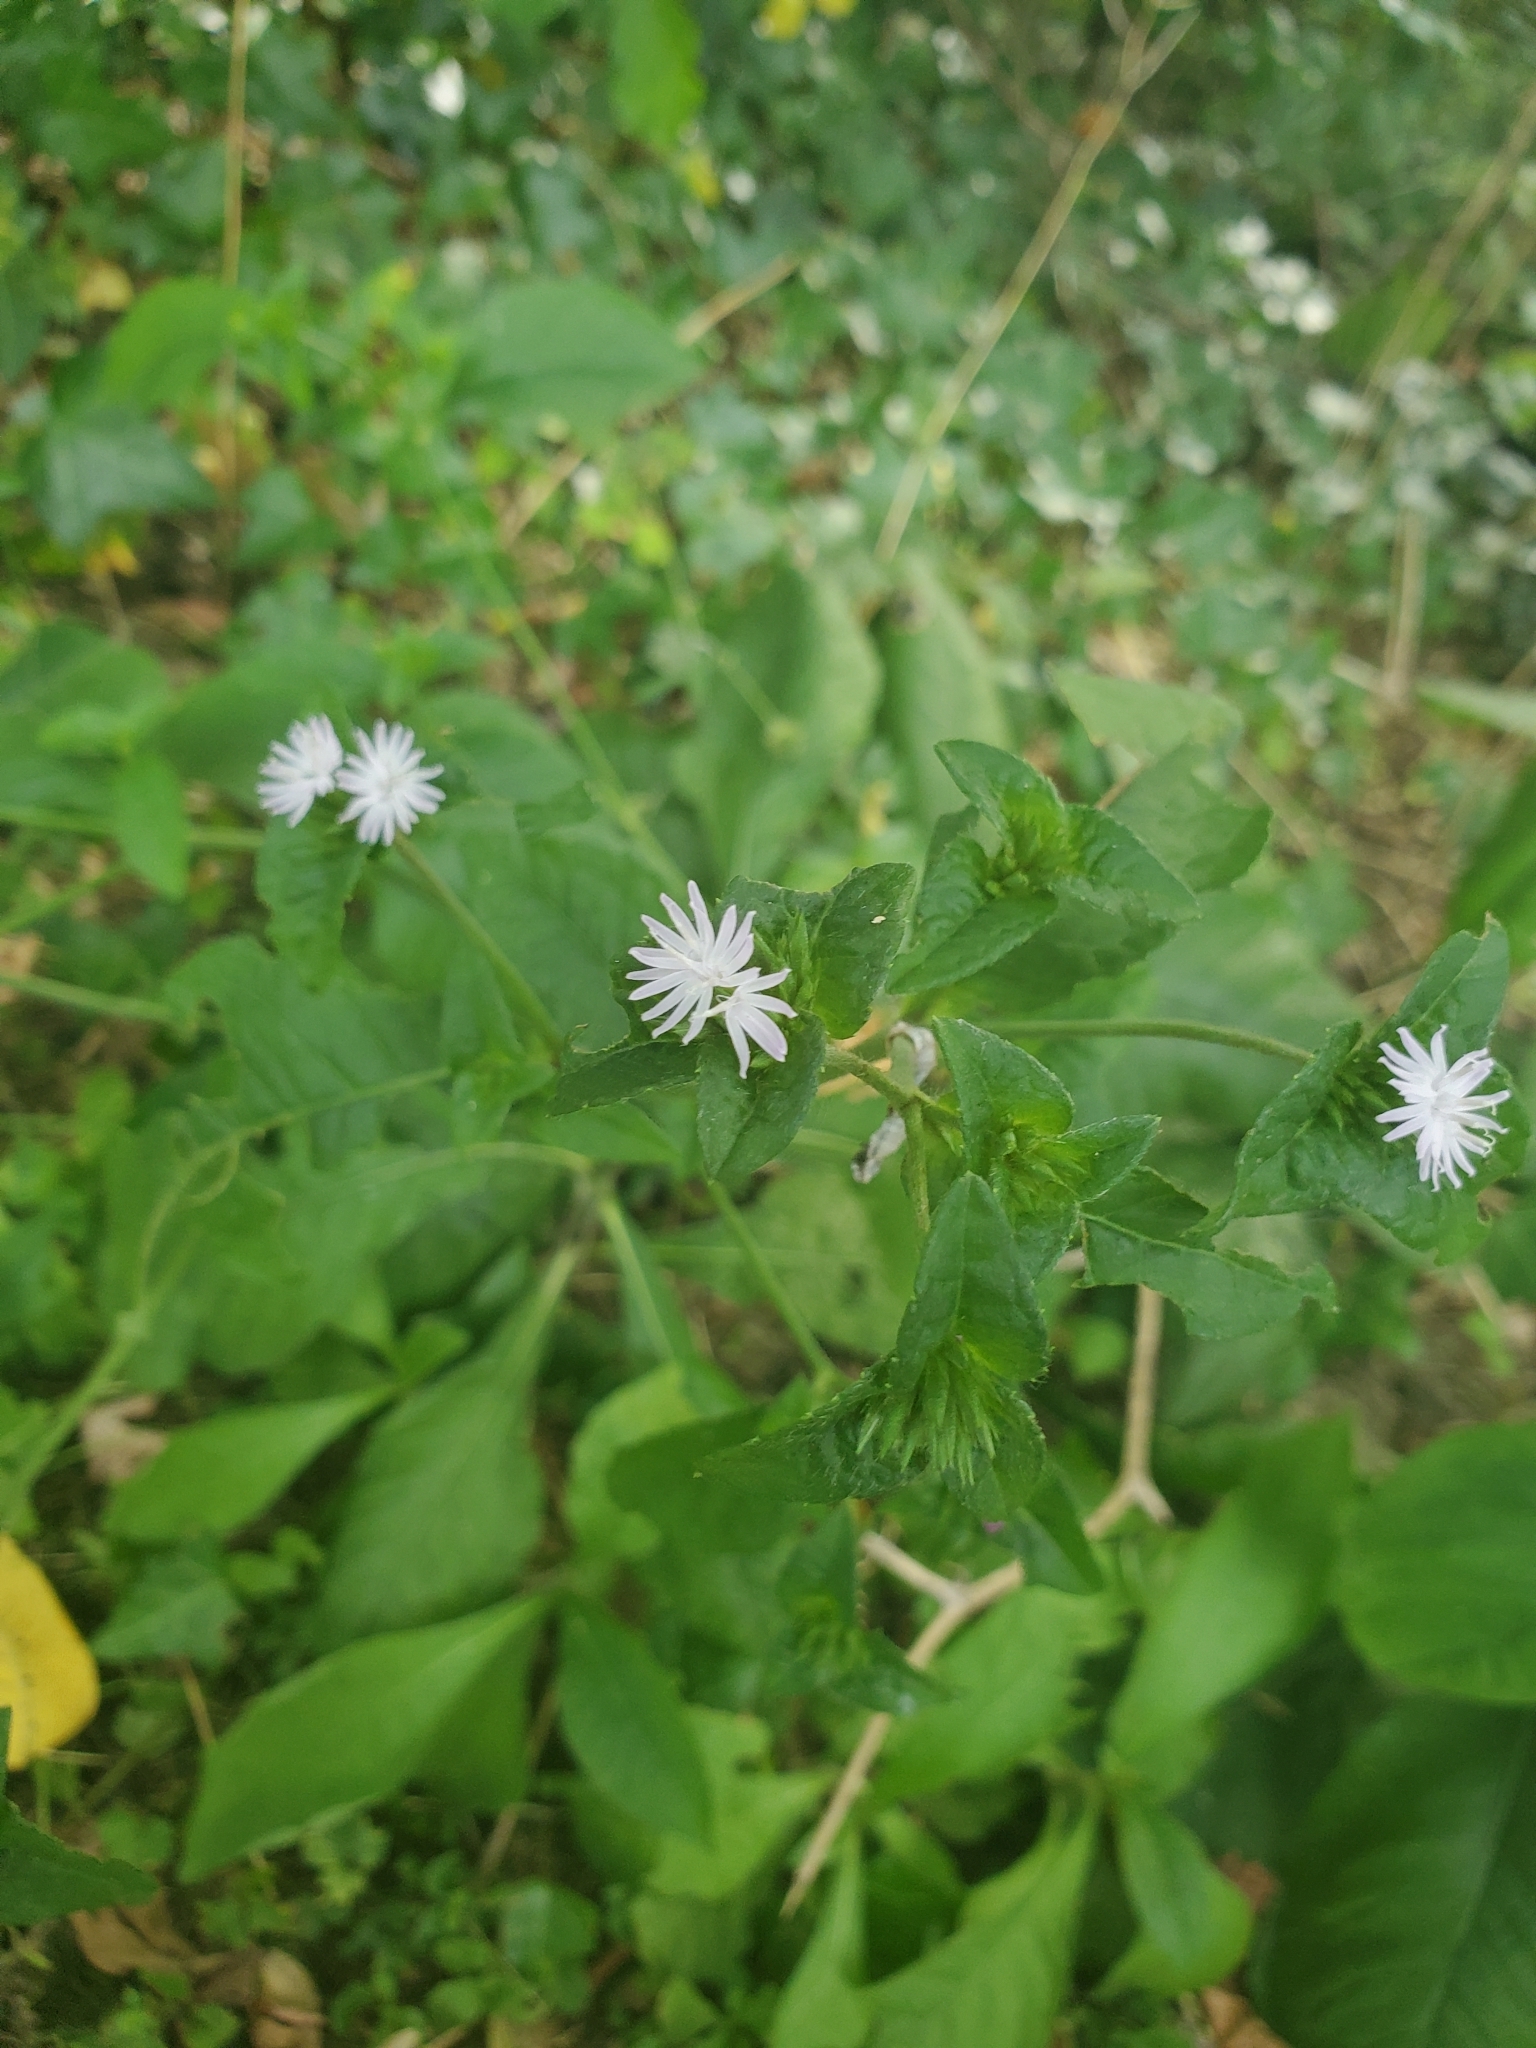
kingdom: Plantae
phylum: Tracheophyta
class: Magnoliopsida
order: Asterales
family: Asteraceae
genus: Elephantopus
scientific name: Elephantopus carolinianus
